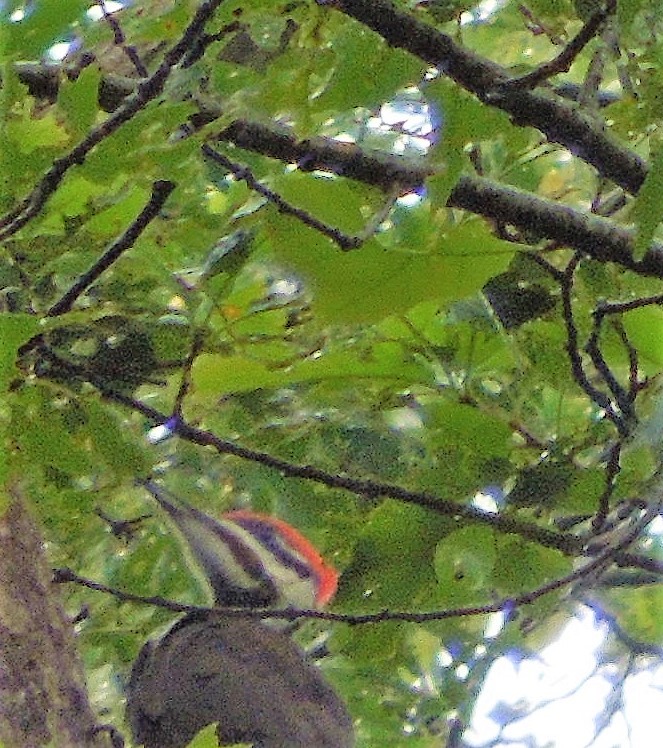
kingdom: Animalia
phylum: Chordata
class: Aves
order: Piciformes
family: Picidae
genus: Dryocopus
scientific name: Dryocopus pileatus
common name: Pileated woodpecker
